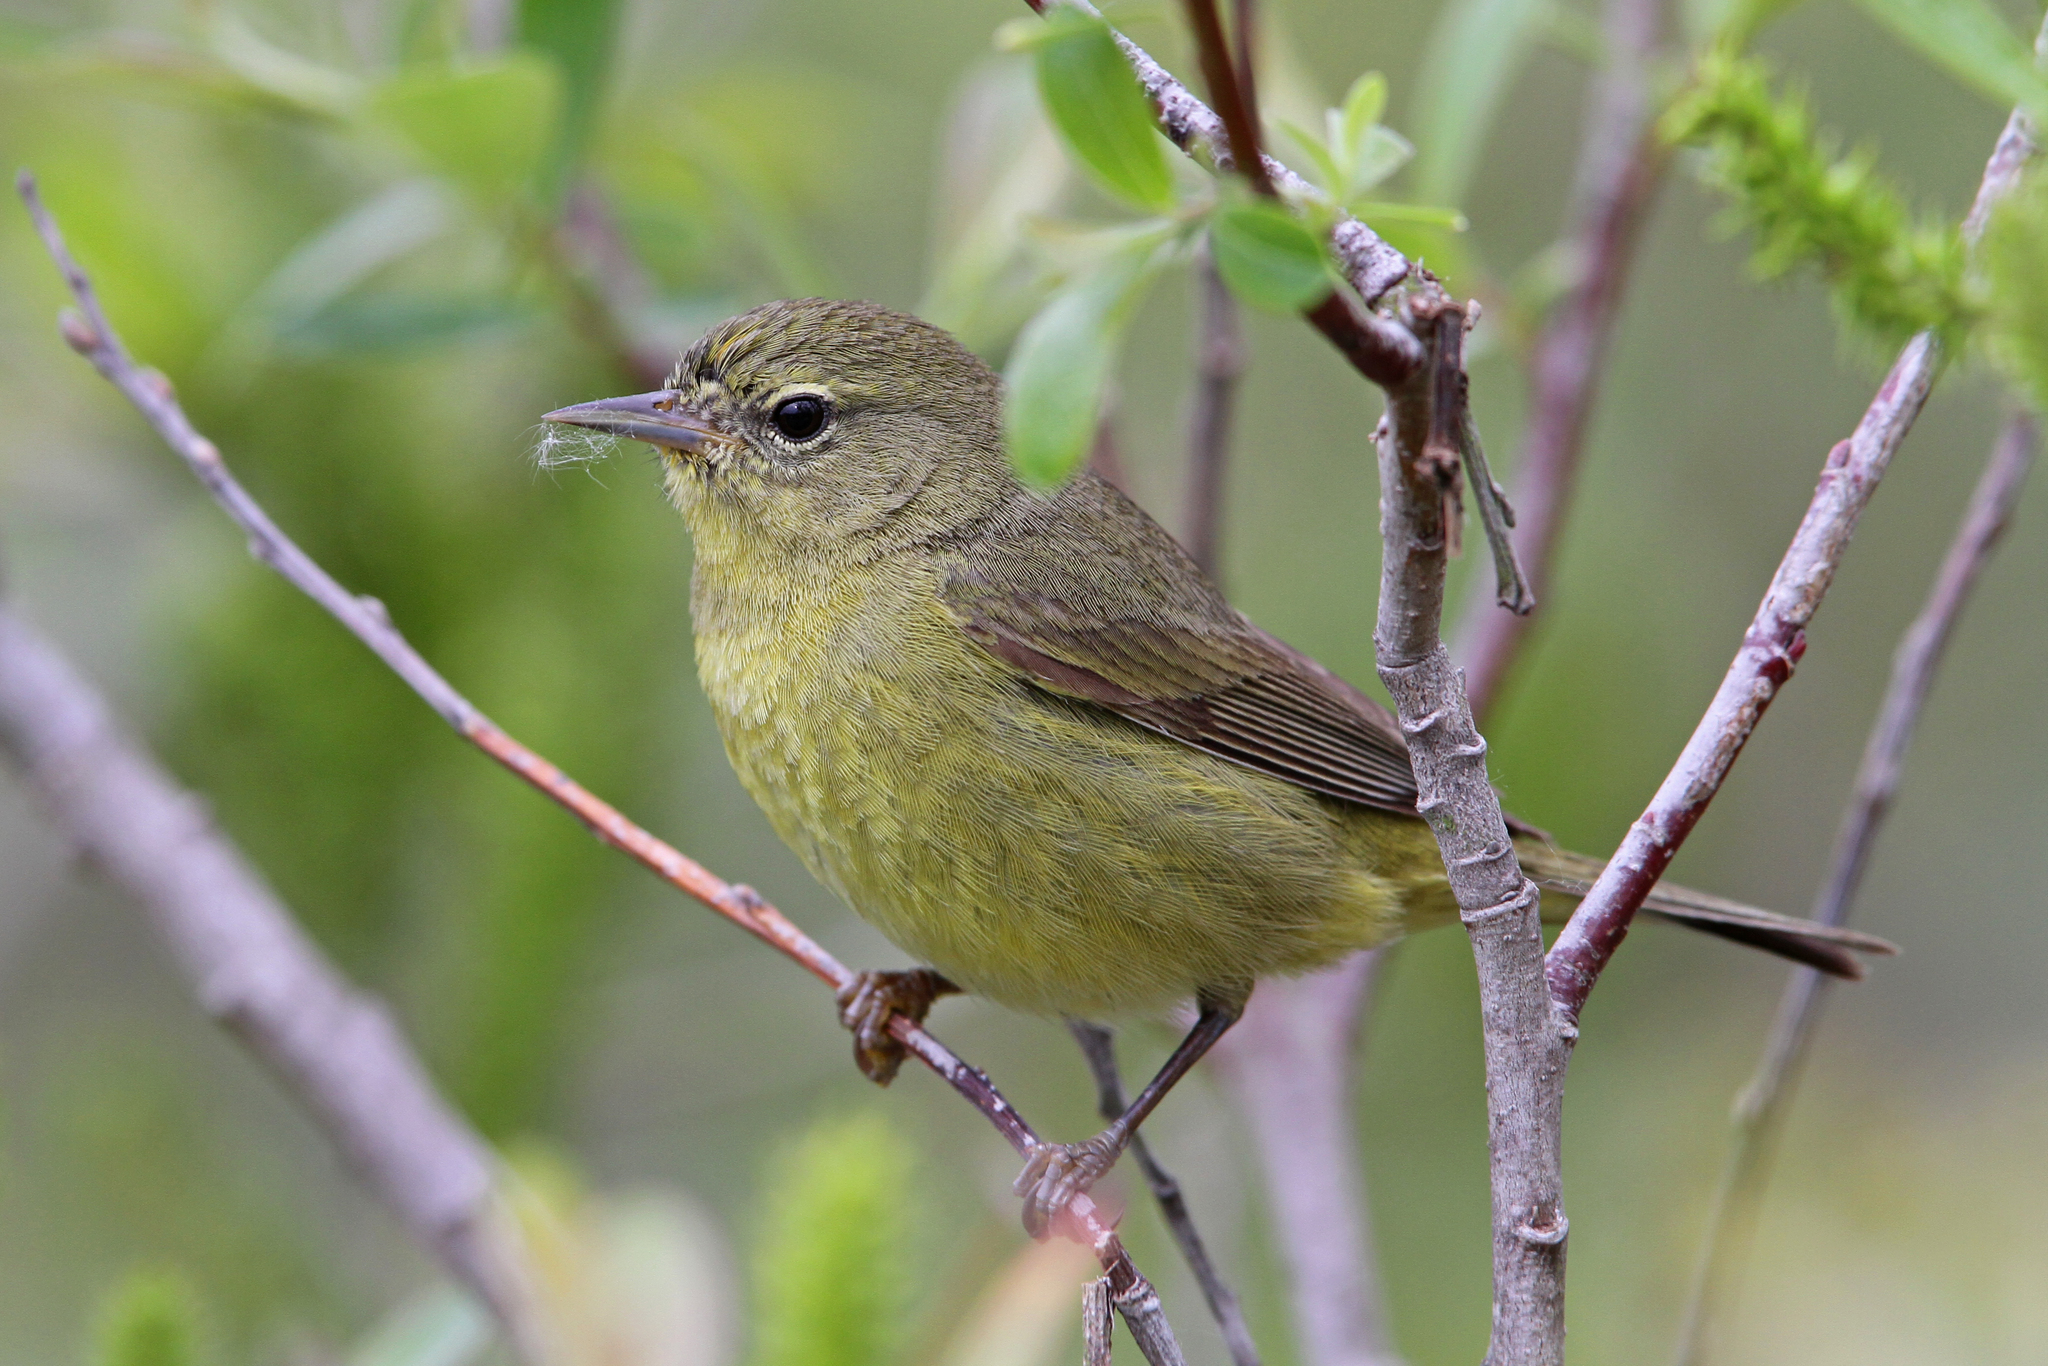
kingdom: Animalia
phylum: Chordata
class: Aves
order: Passeriformes
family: Parulidae
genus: Leiothlypis
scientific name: Leiothlypis celata
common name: Orange-crowned warbler
